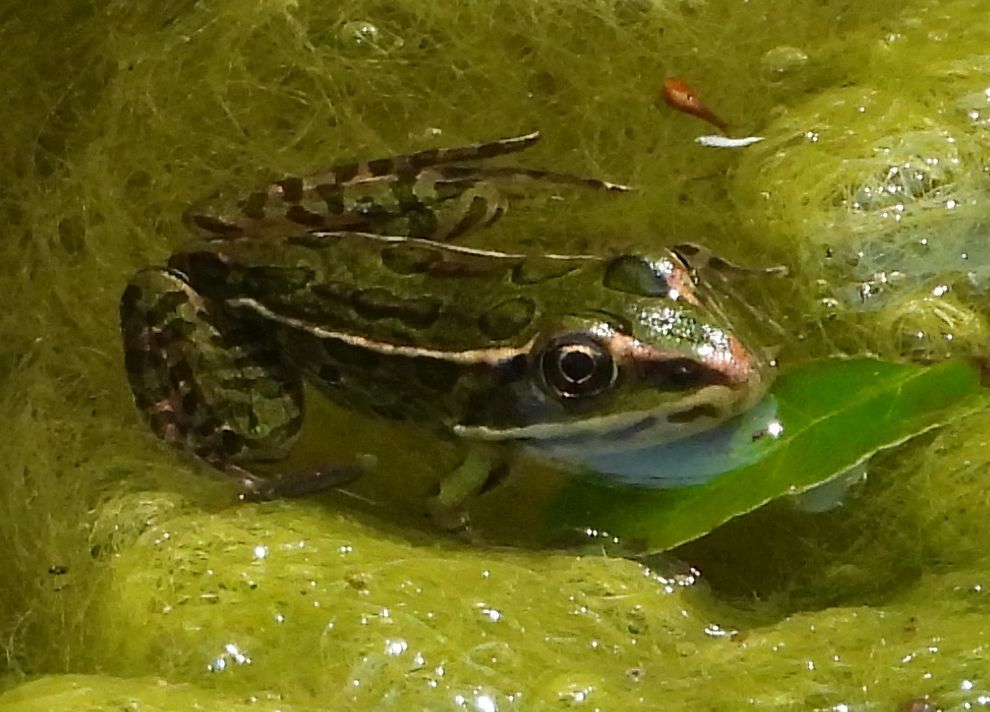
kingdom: Animalia
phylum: Chordata
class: Amphibia
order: Anura
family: Ranidae
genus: Lithobates
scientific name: Lithobates pipiens
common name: Northern leopard frog
